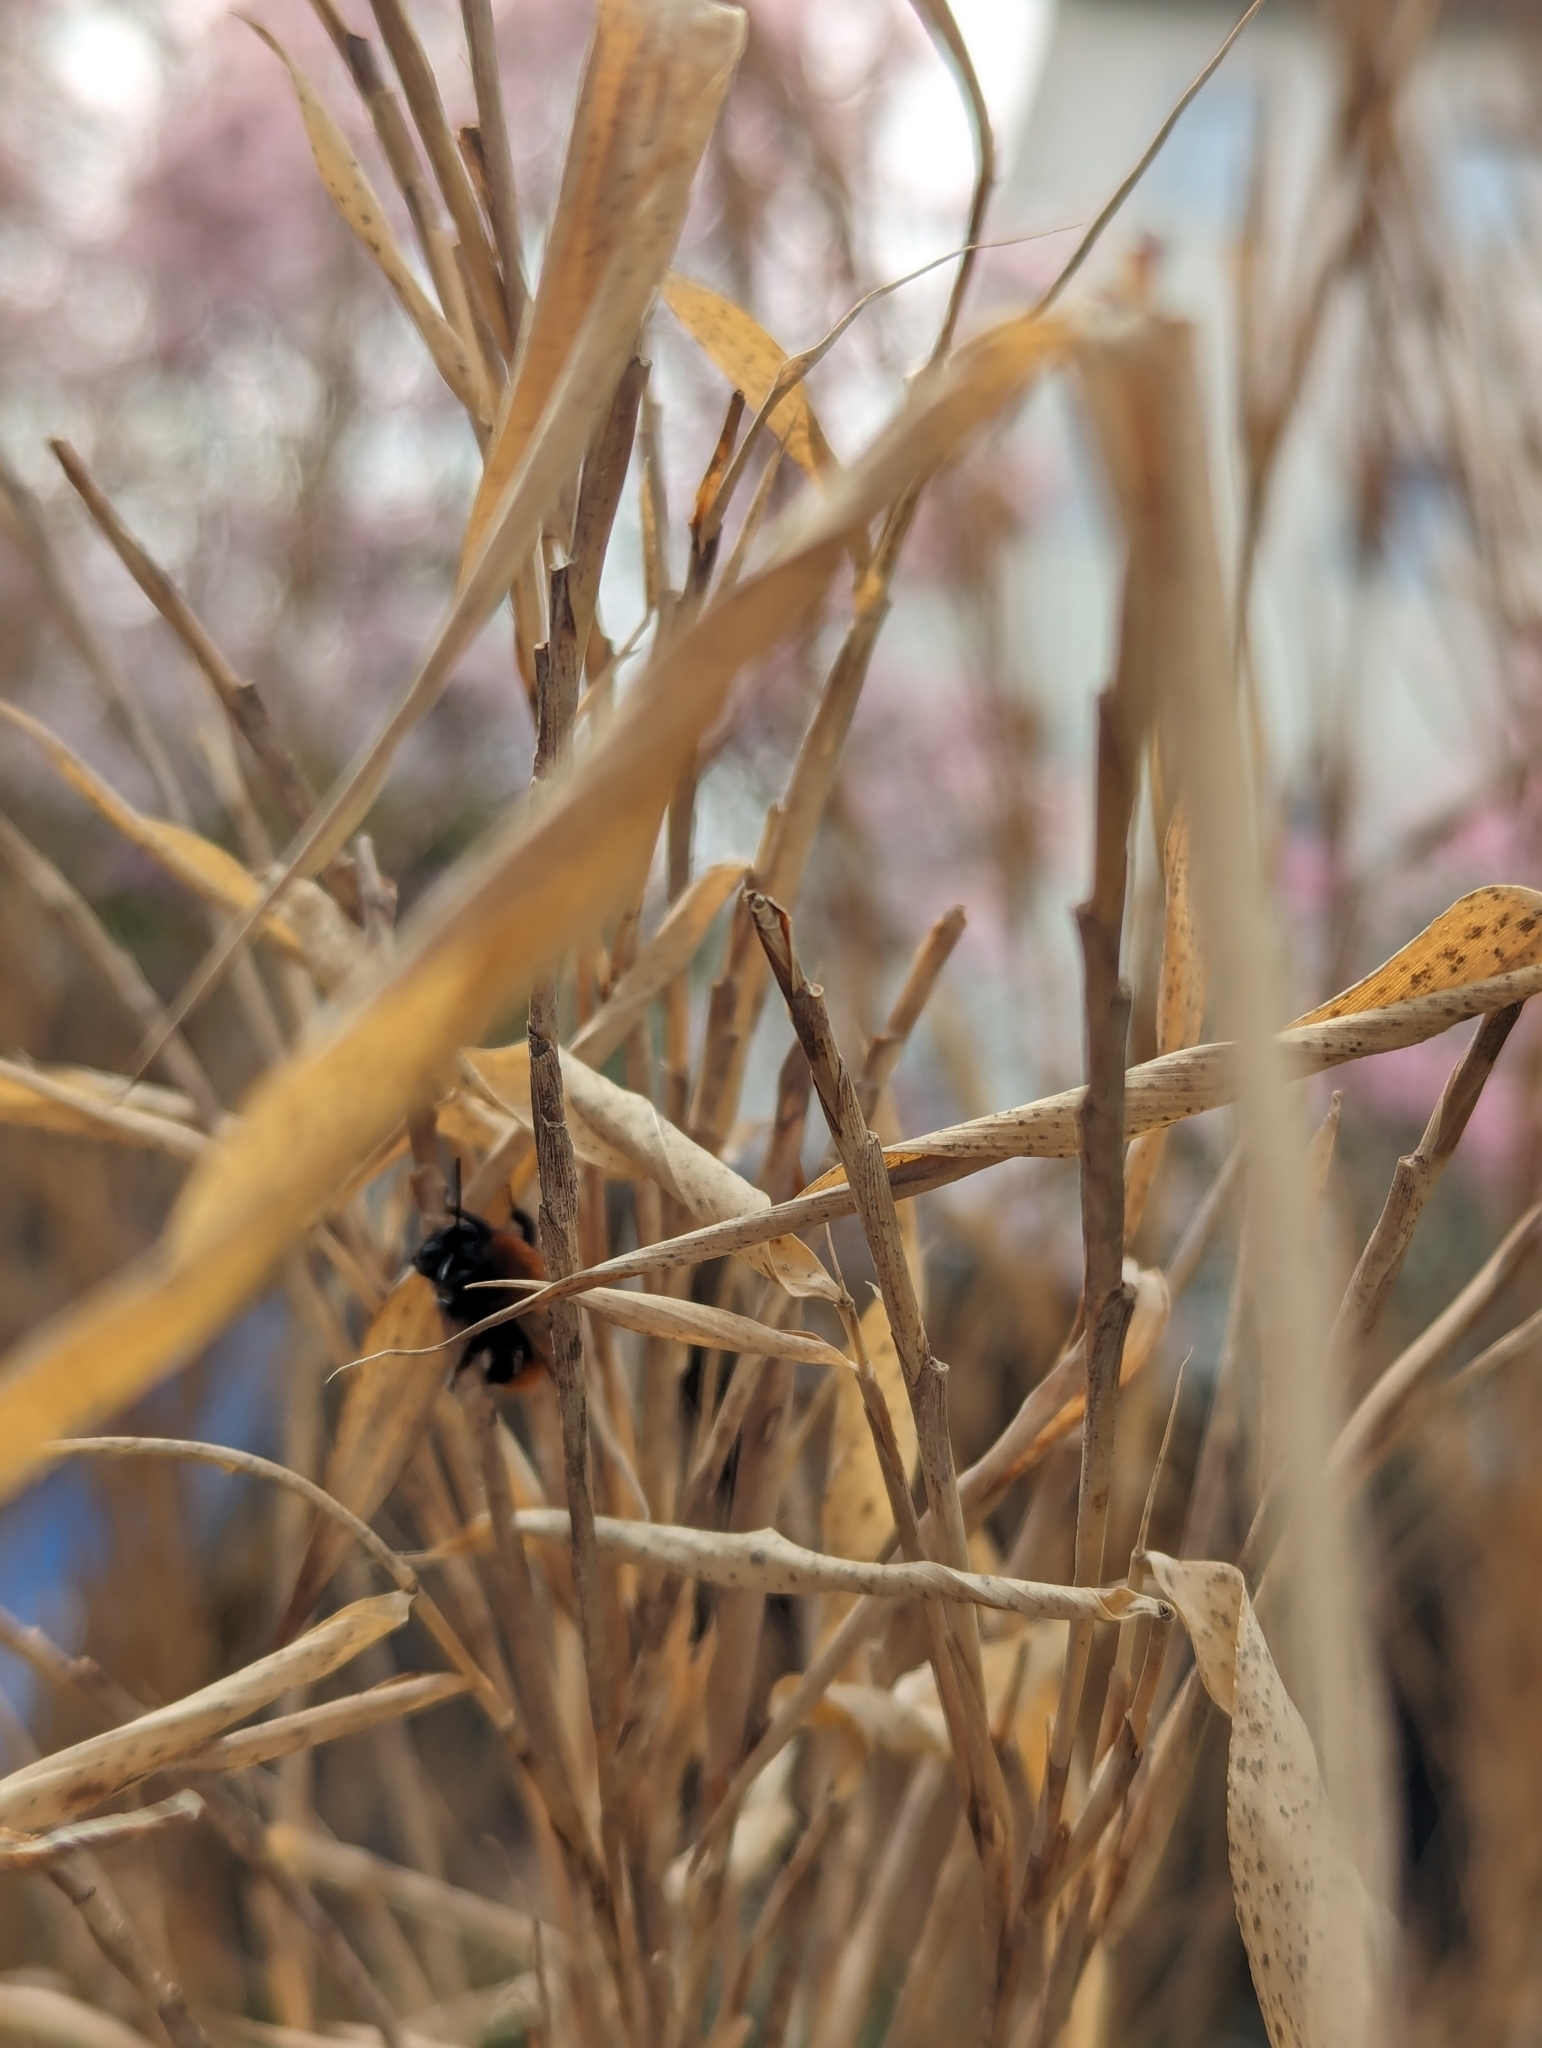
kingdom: Animalia
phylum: Arthropoda
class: Insecta
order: Hymenoptera
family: Andrenidae
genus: Andrena
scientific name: Andrena fulva
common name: Tawny mining bee
